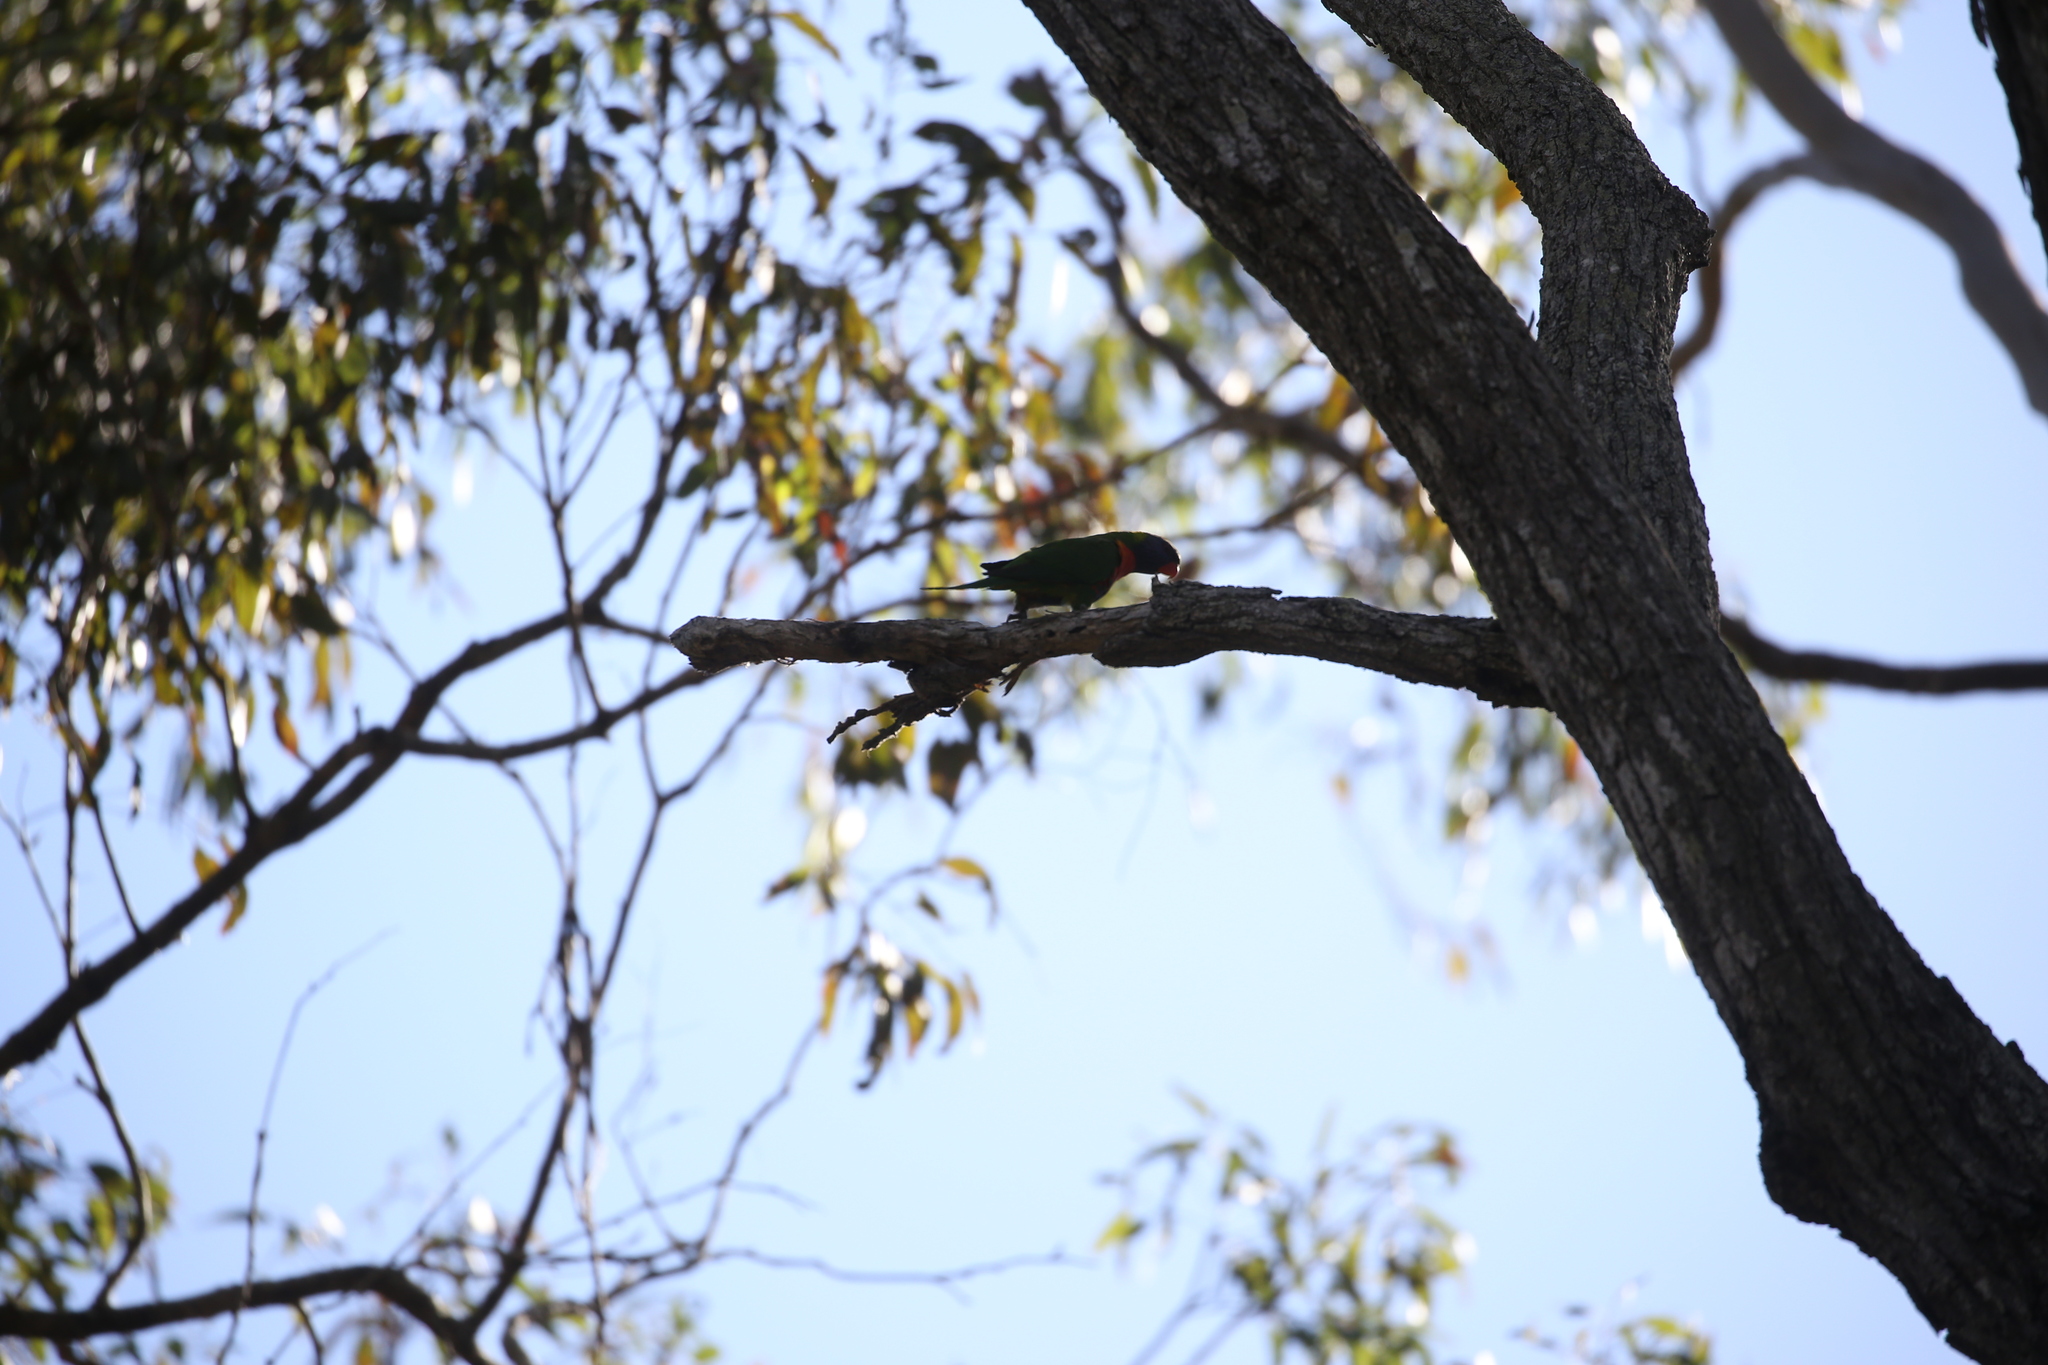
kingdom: Animalia
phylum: Chordata
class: Aves
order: Psittaciformes
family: Psittacidae
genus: Trichoglossus
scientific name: Trichoglossus haematodus
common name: Coconut lorikeet
